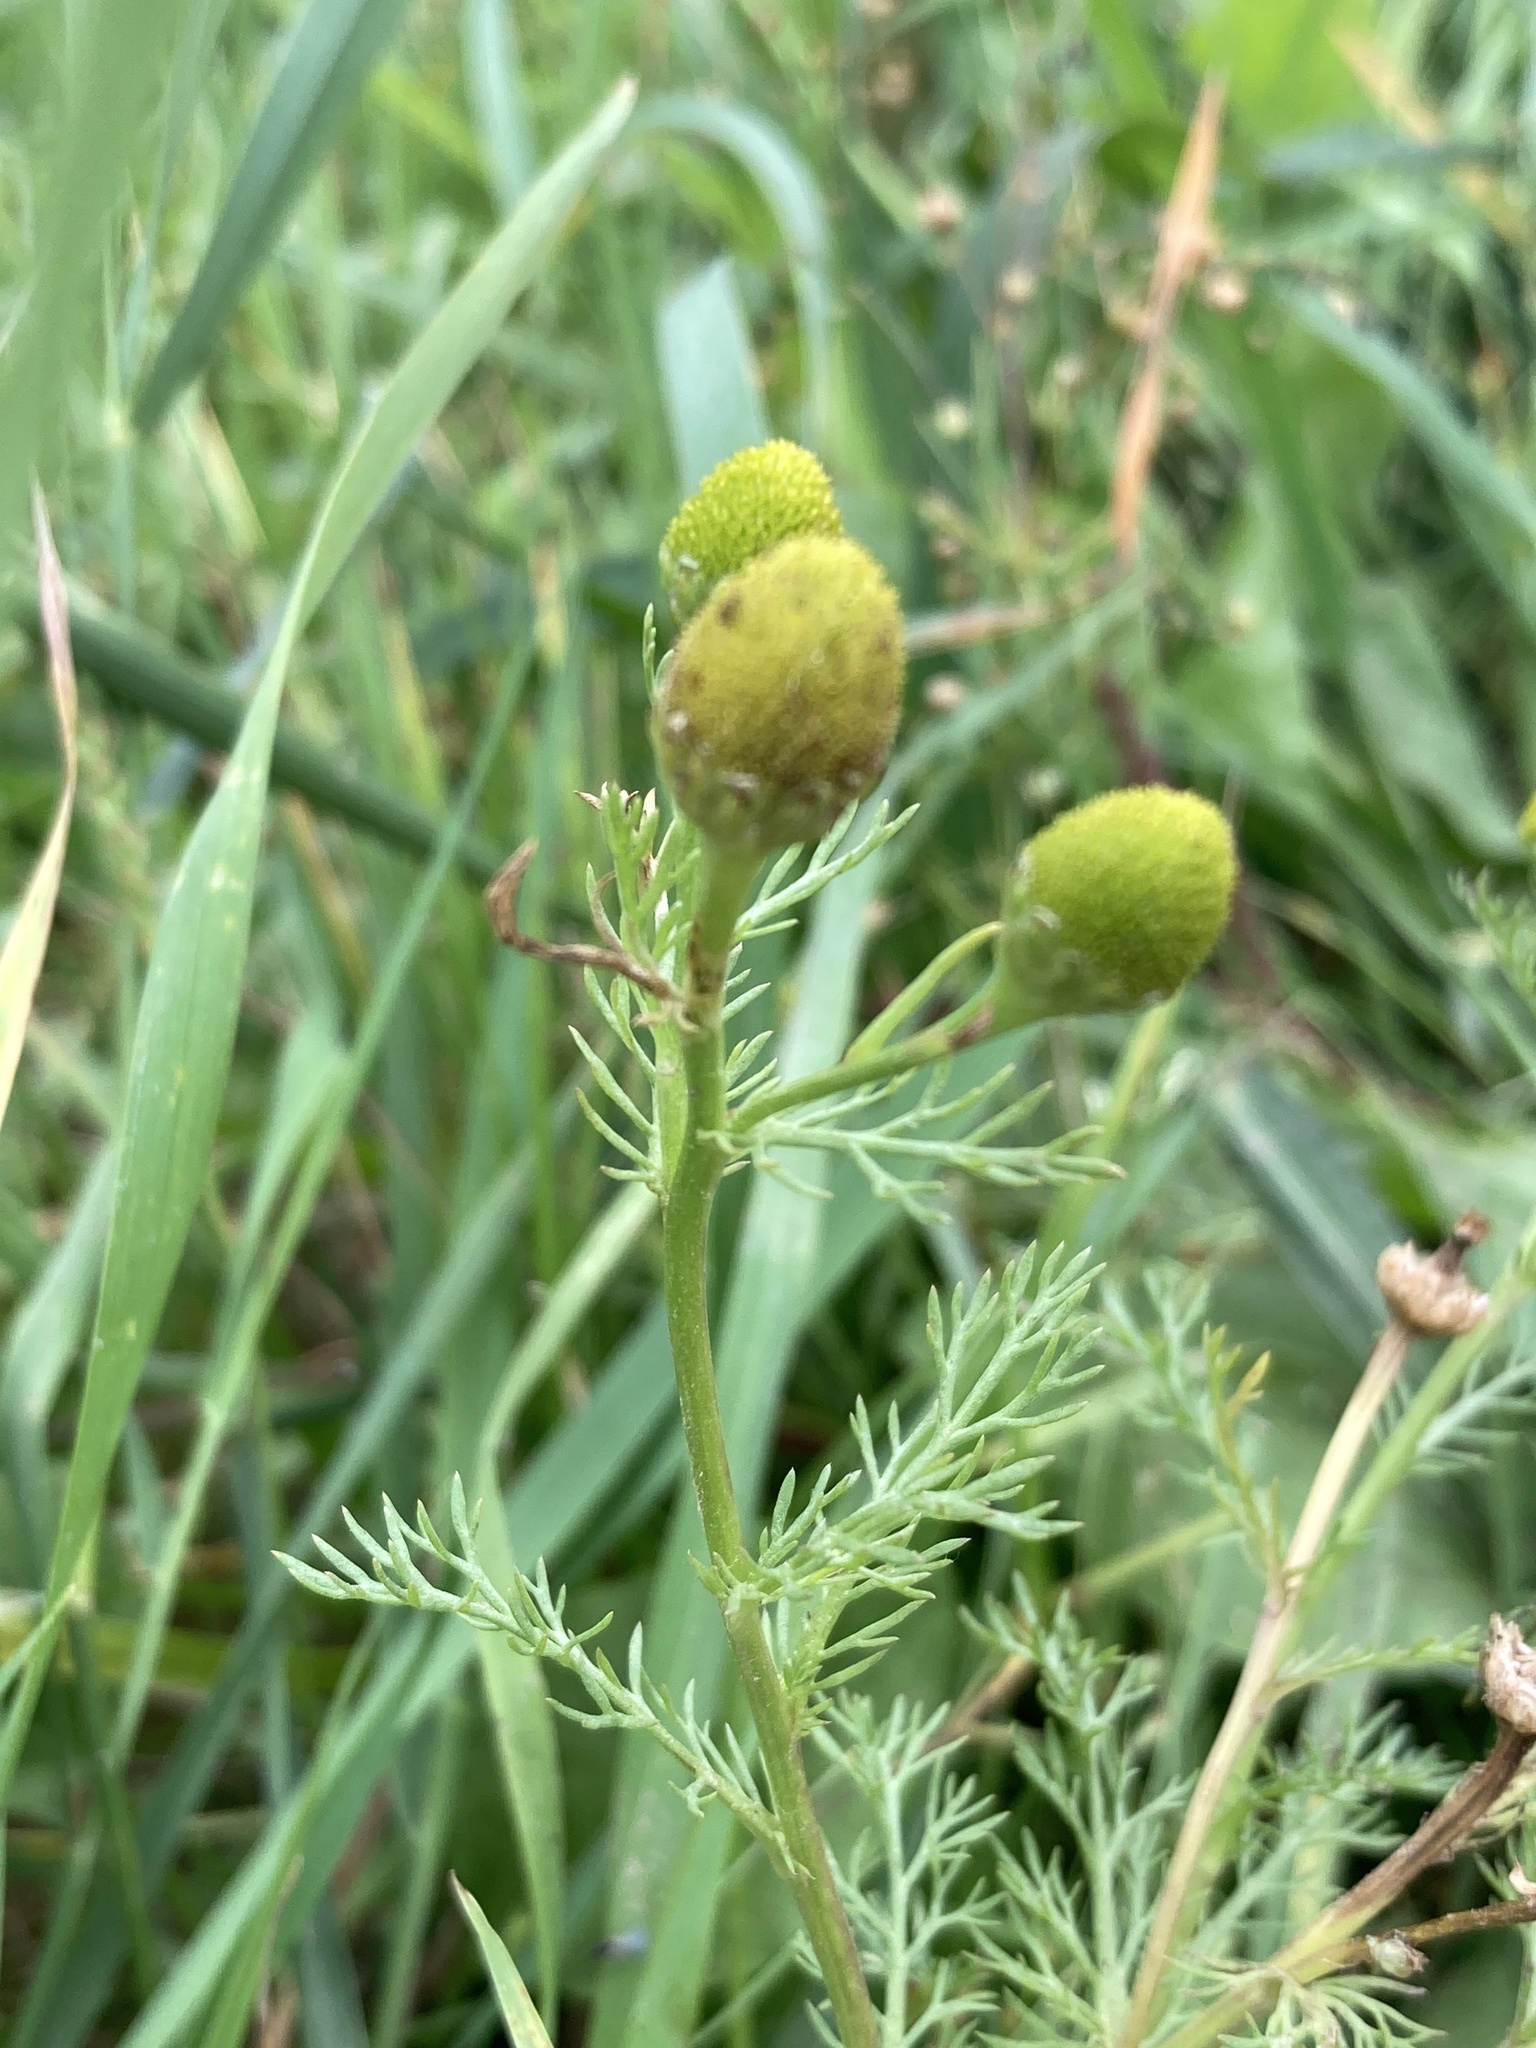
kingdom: Plantae
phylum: Tracheophyta
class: Magnoliopsida
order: Asterales
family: Asteraceae
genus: Matricaria
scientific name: Matricaria discoidea
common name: Disc mayweed
